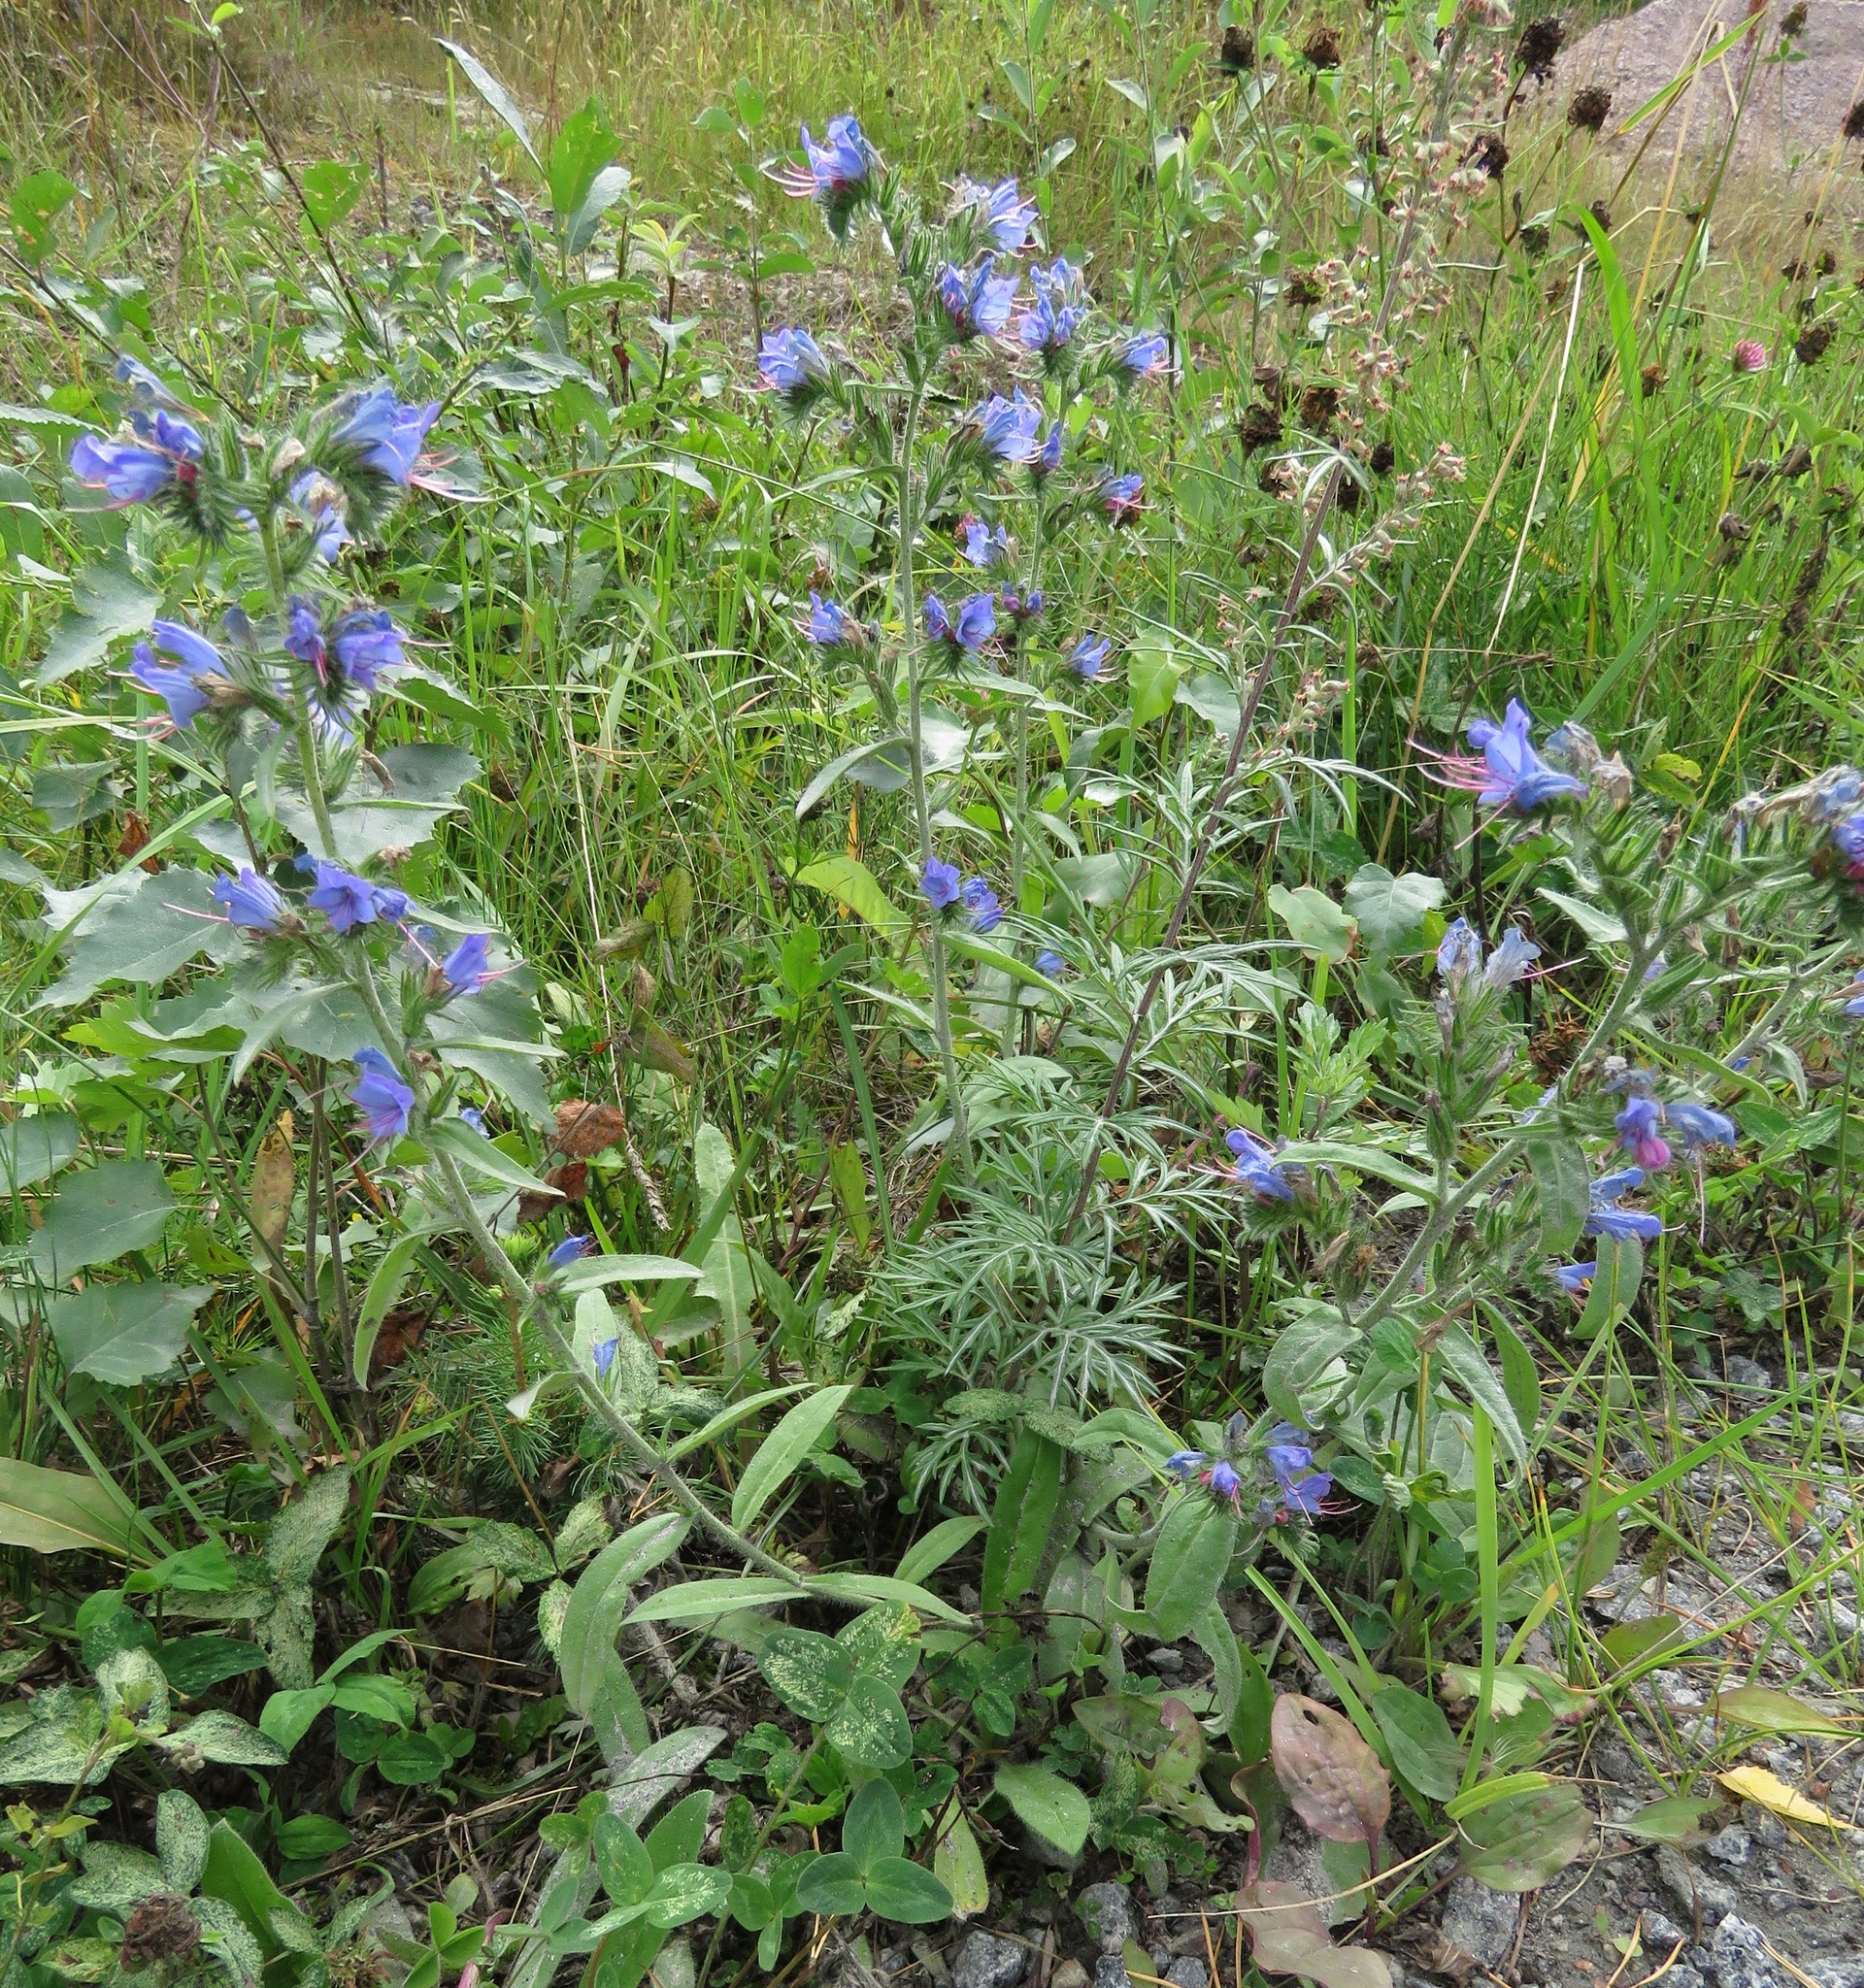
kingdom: Plantae
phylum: Tracheophyta
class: Magnoliopsida
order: Boraginales
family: Boraginaceae
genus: Echium
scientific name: Echium vulgare
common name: Common viper's bugloss
